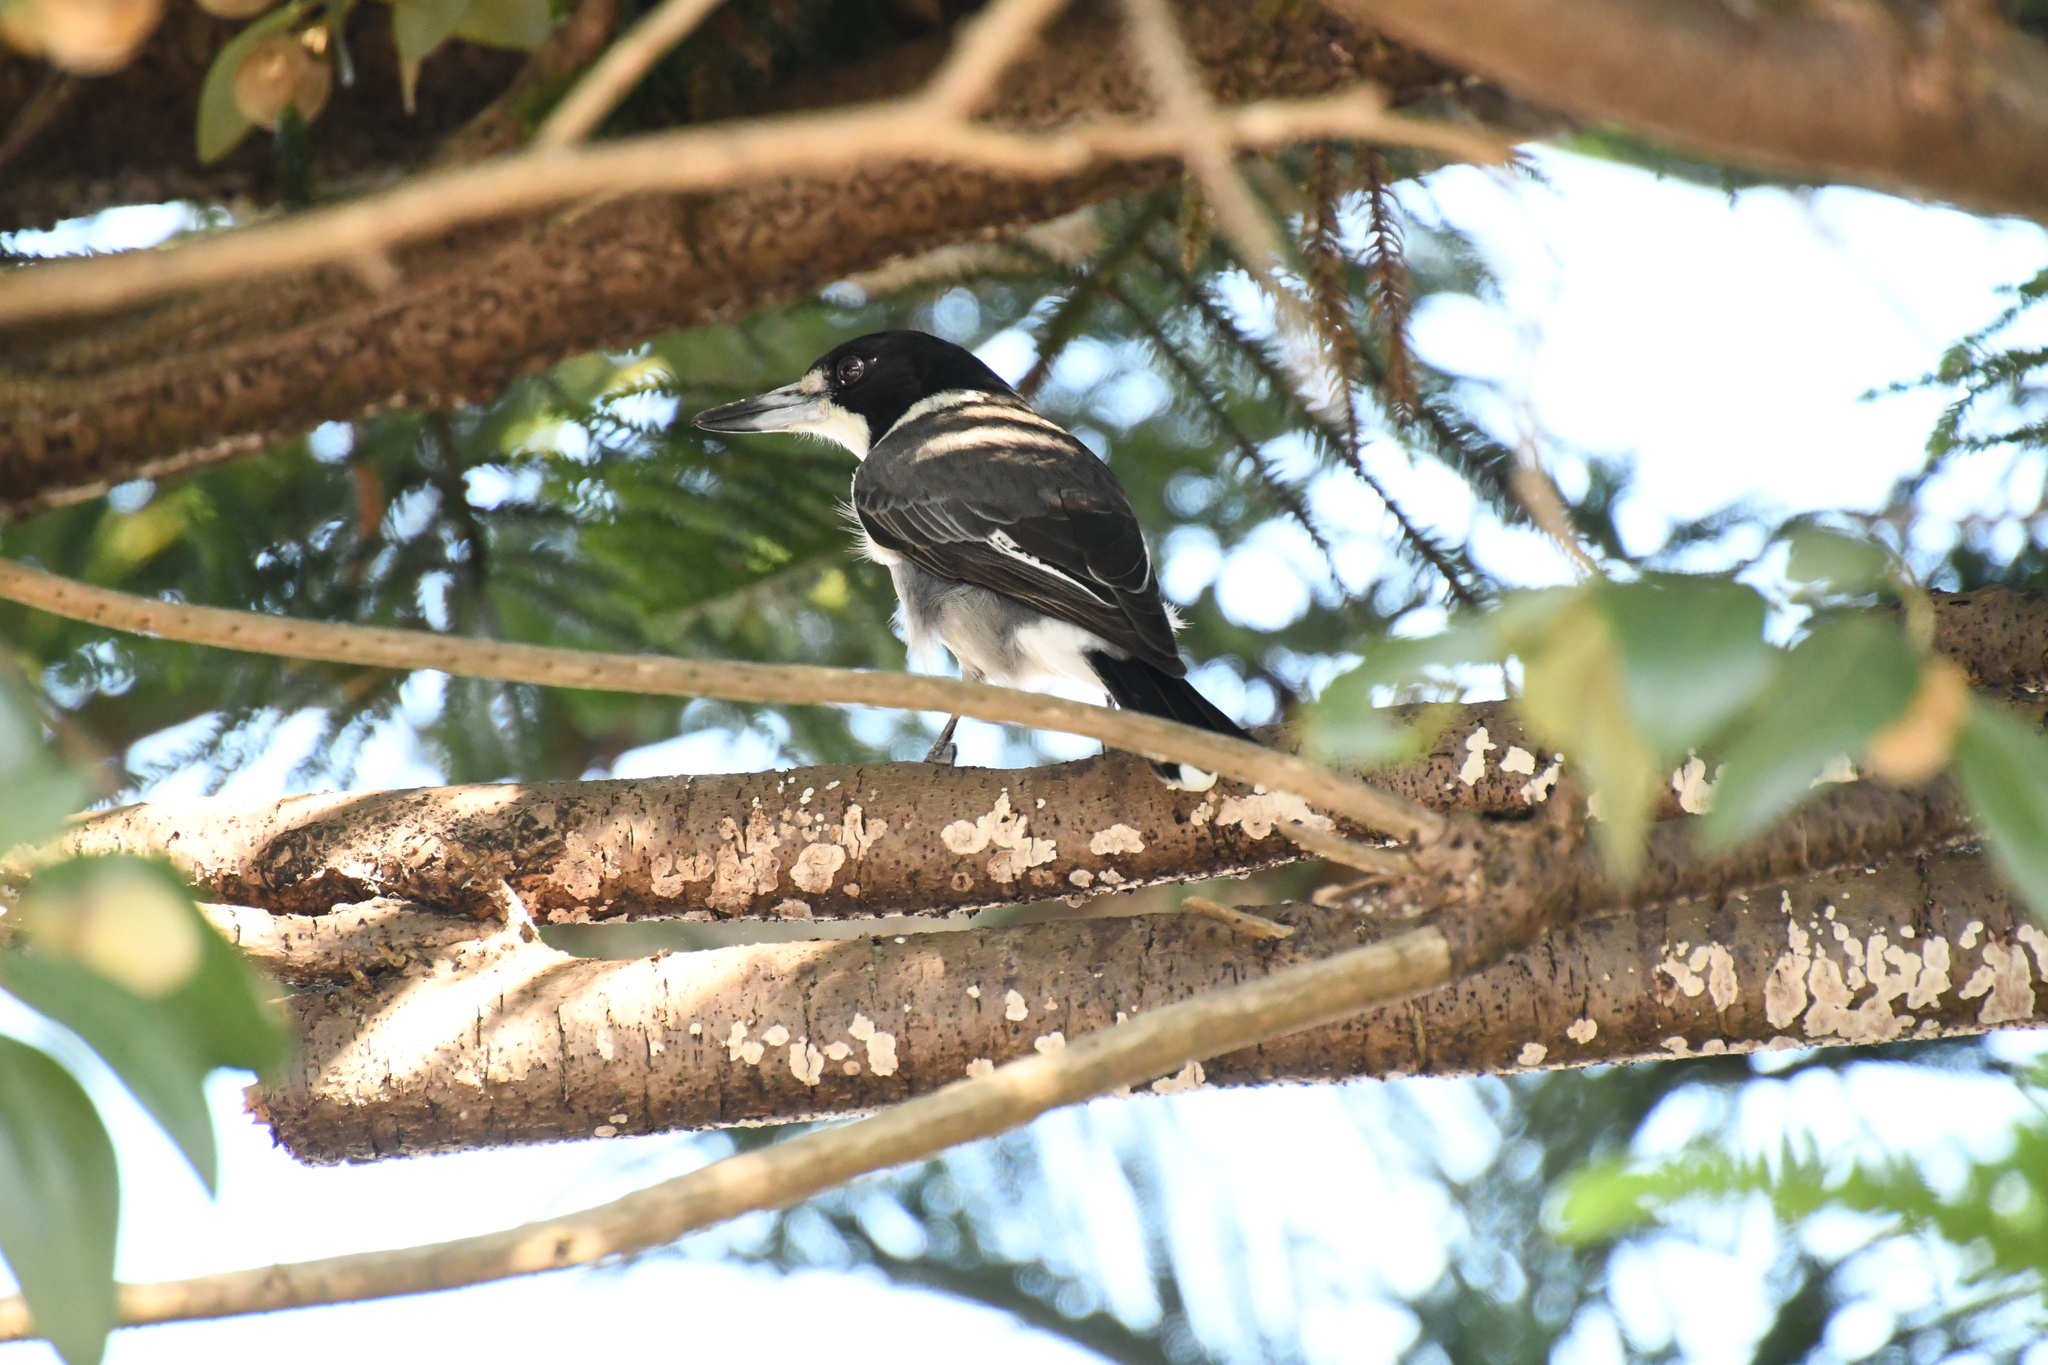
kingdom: Animalia
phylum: Chordata
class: Aves
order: Passeriformes
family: Cracticidae
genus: Cracticus
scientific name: Cracticus torquatus
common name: Grey butcherbird
